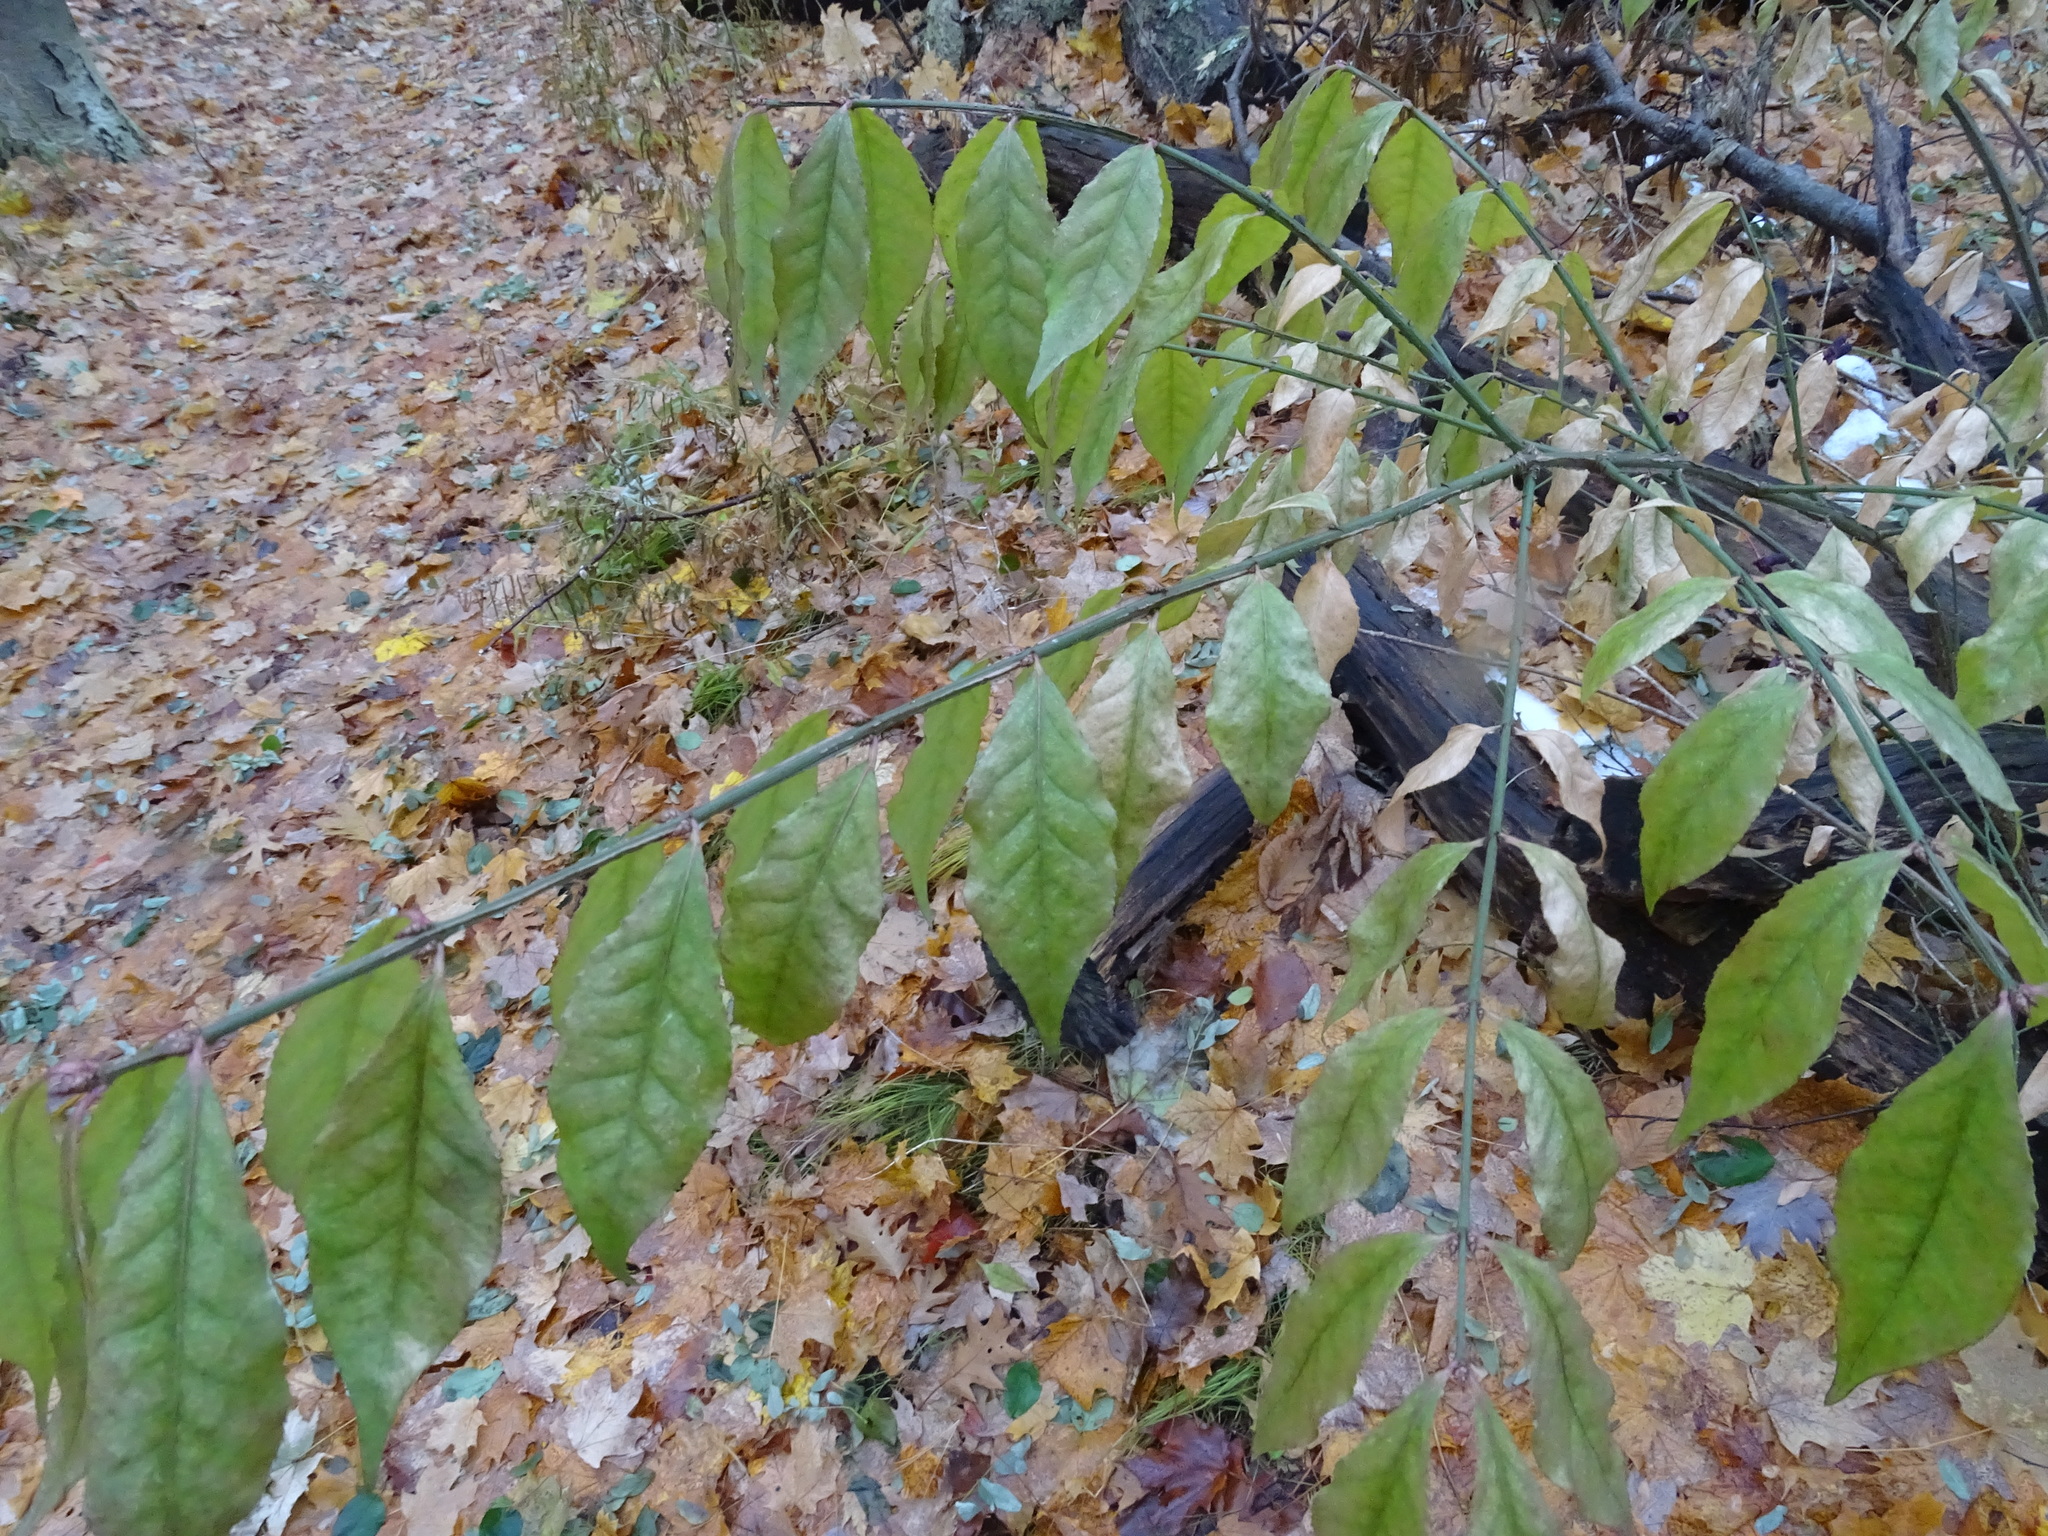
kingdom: Plantae
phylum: Tracheophyta
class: Magnoliopsida
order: Celastrales
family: Celastraceae
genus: Euonymus
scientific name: Euonymus alatus
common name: Winged euonymus
